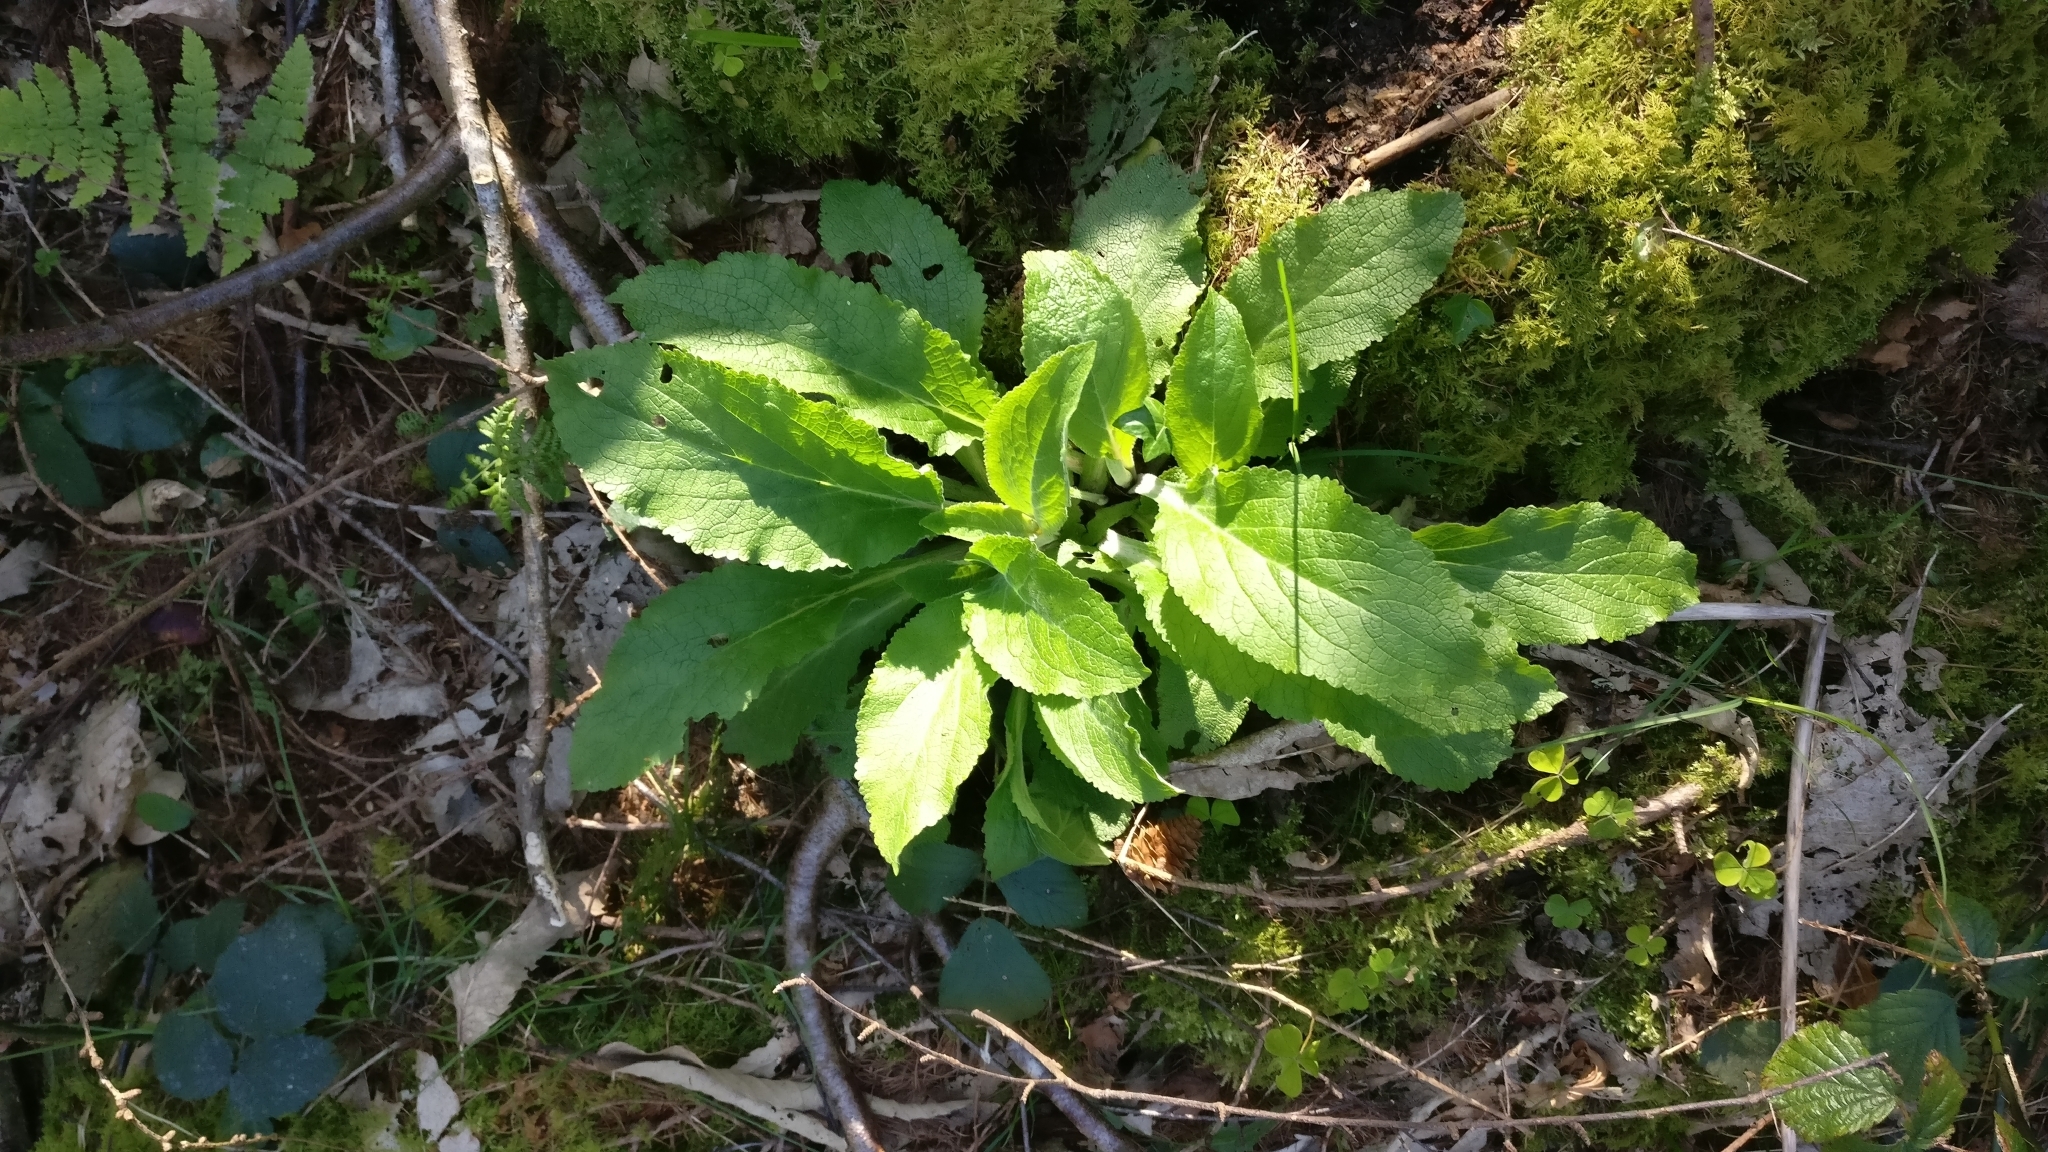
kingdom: Plantae
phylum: Tracheophyta
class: Magnoliopsida
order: Lamiales
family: Plantaginaceae
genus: Digitalis
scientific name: Digitalis purpurea
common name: Foxglove
